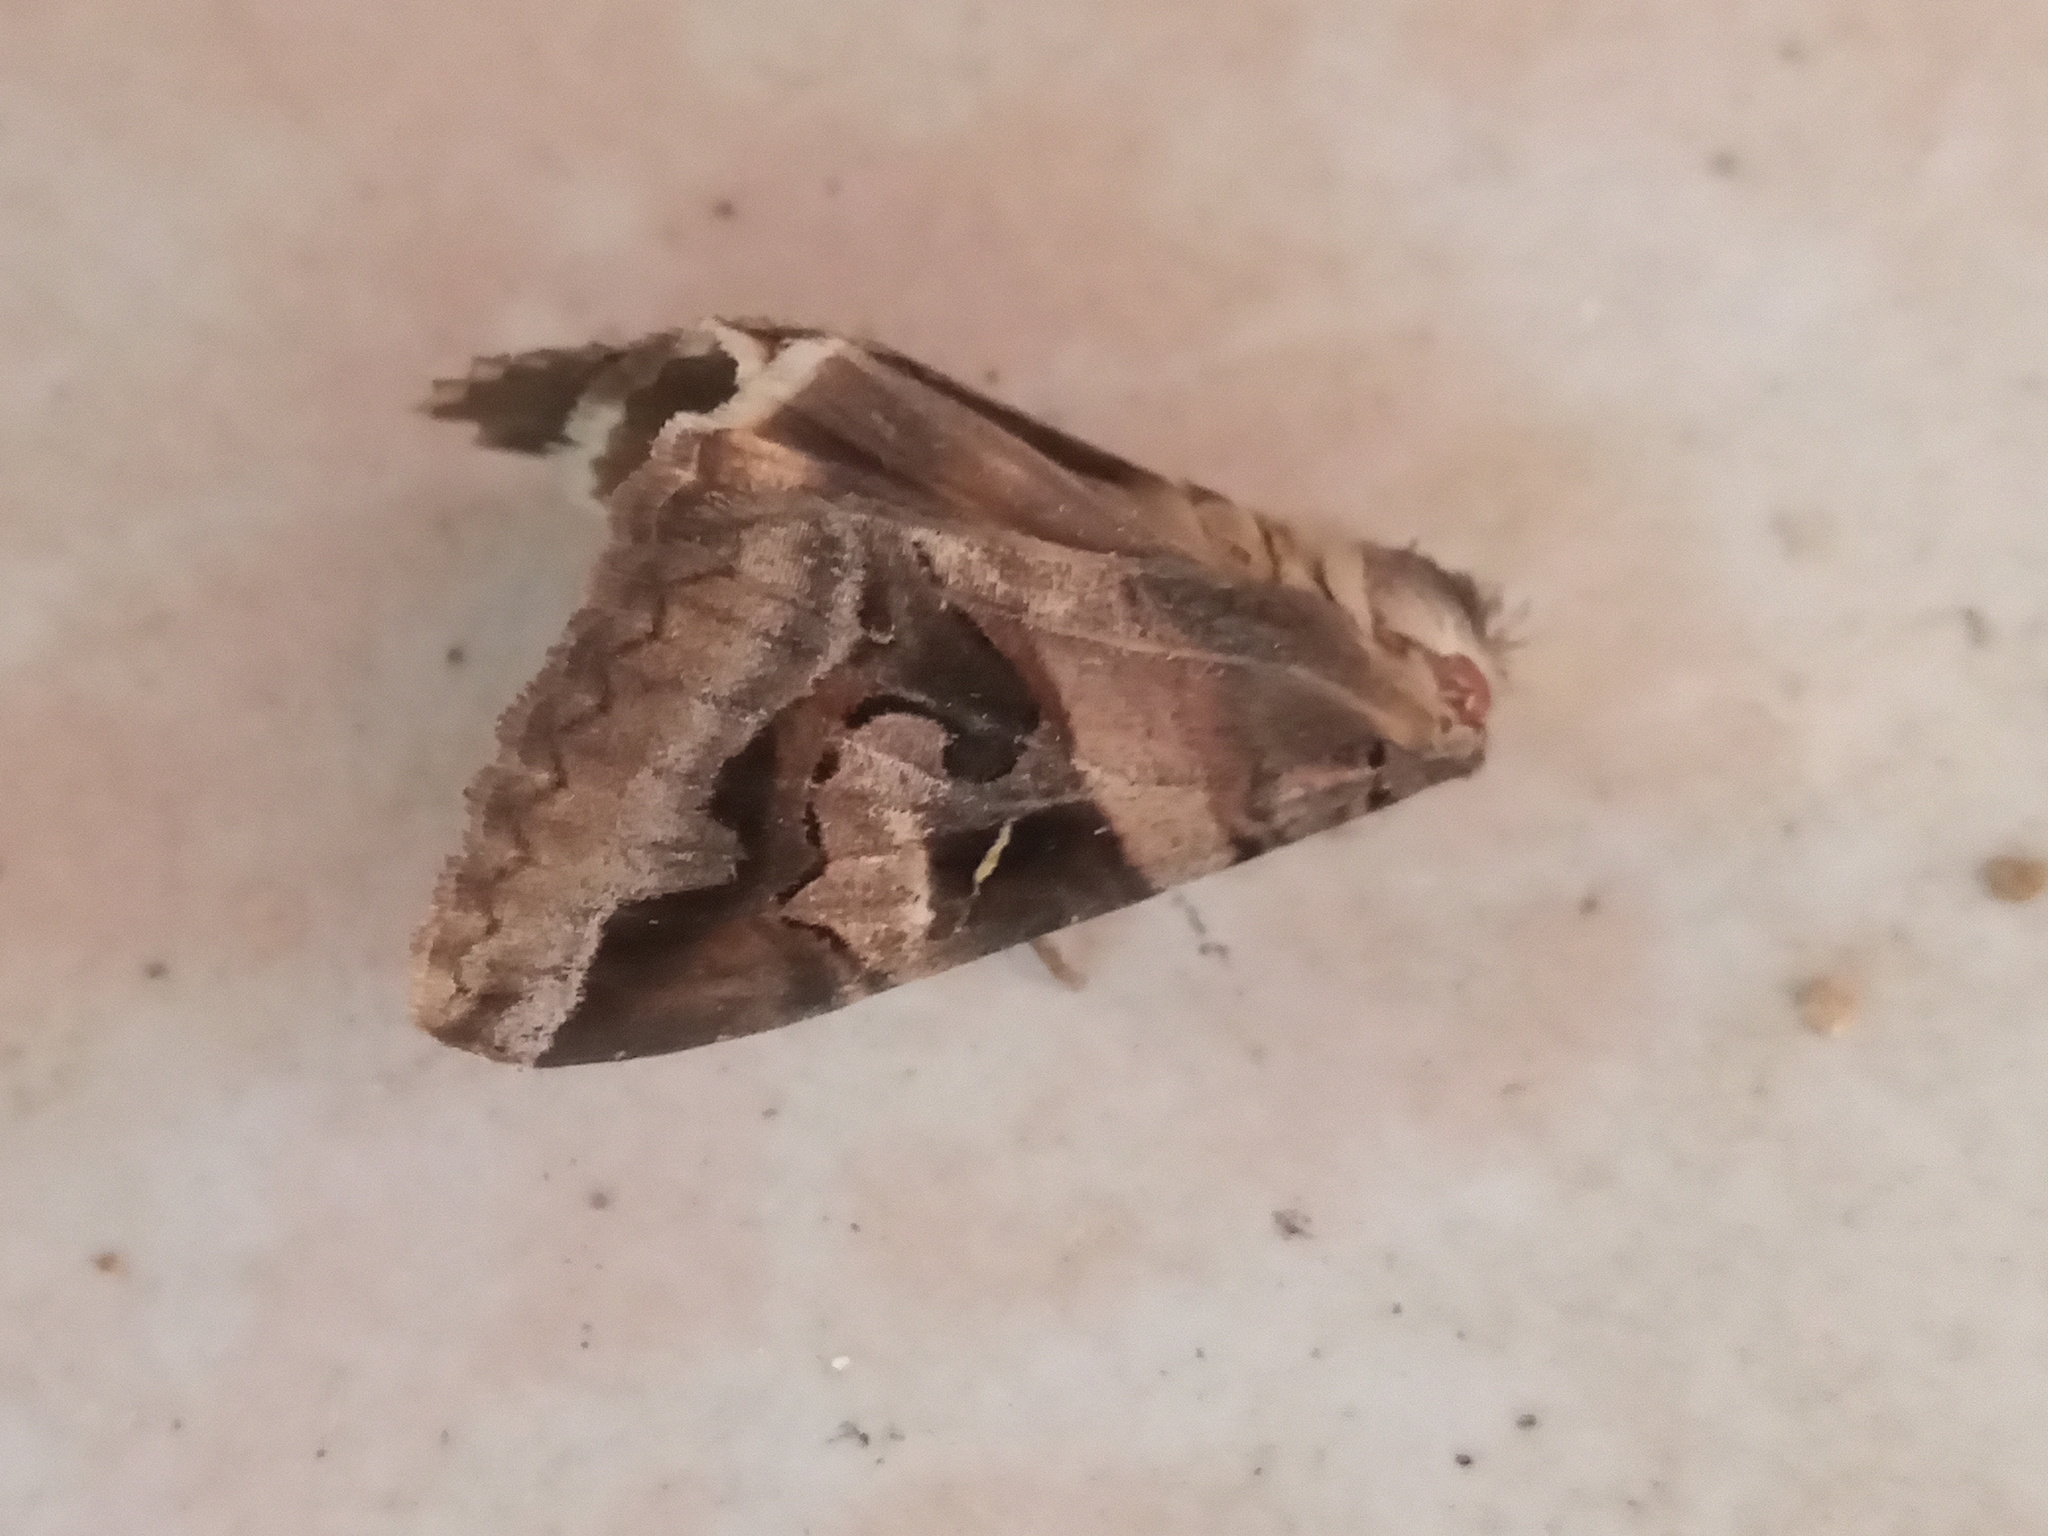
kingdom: Animalia
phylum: Arthropoda
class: Insecta
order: Lepidoptera
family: Erebidae
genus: Melipotis
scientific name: Melipotis indomita
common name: Moth
